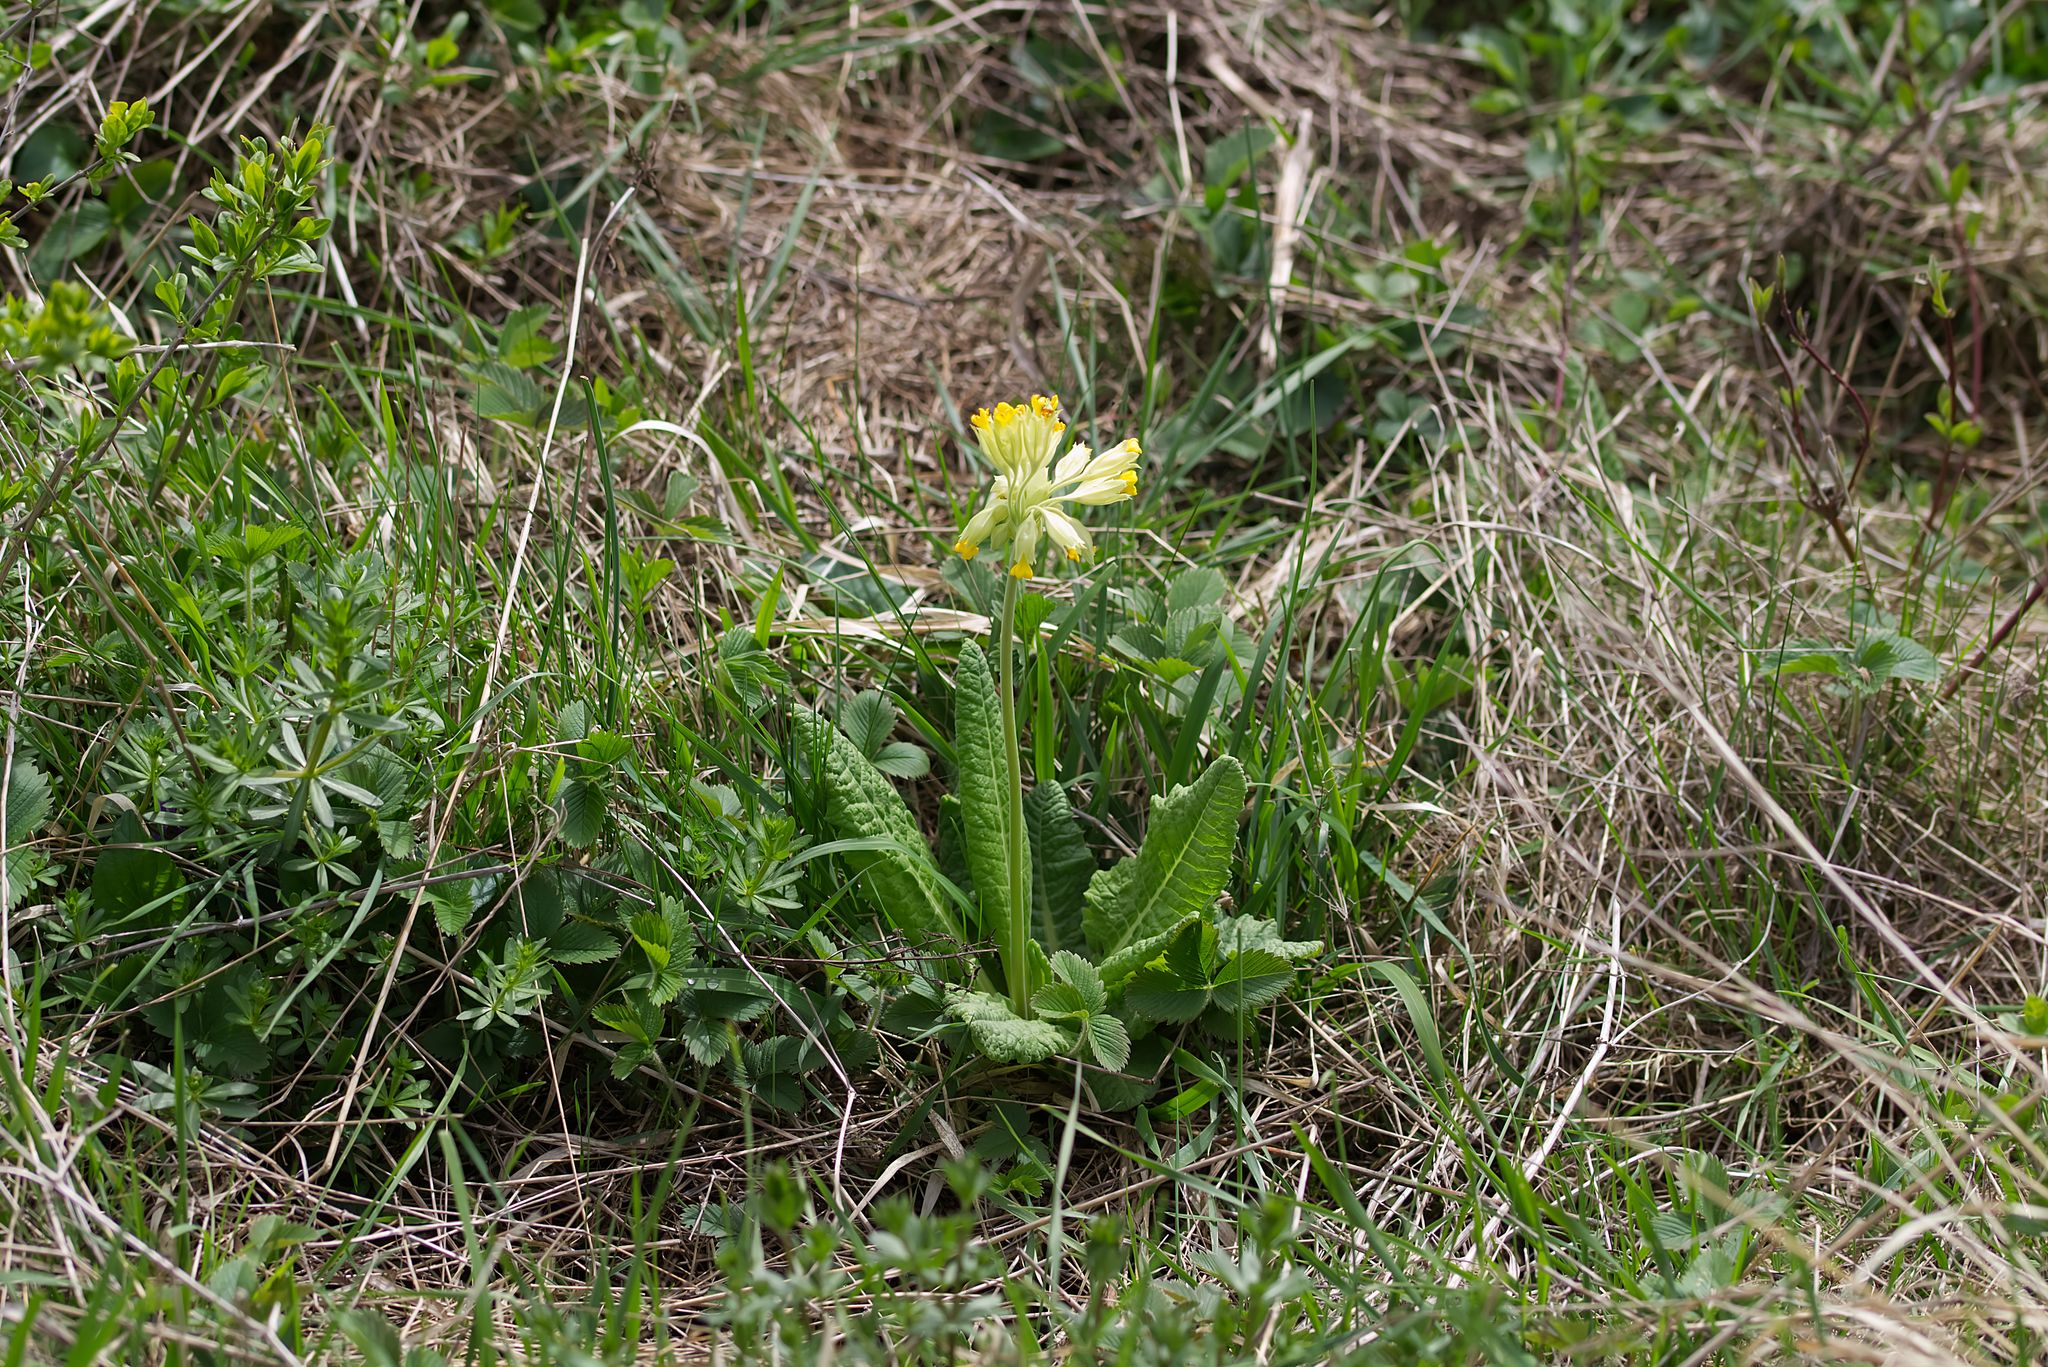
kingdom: Plantae
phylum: Tracheophyta
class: Magnoliopsida
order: Ericales
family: Primulaceae
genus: Primula
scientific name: Primula veris
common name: Cowslip
